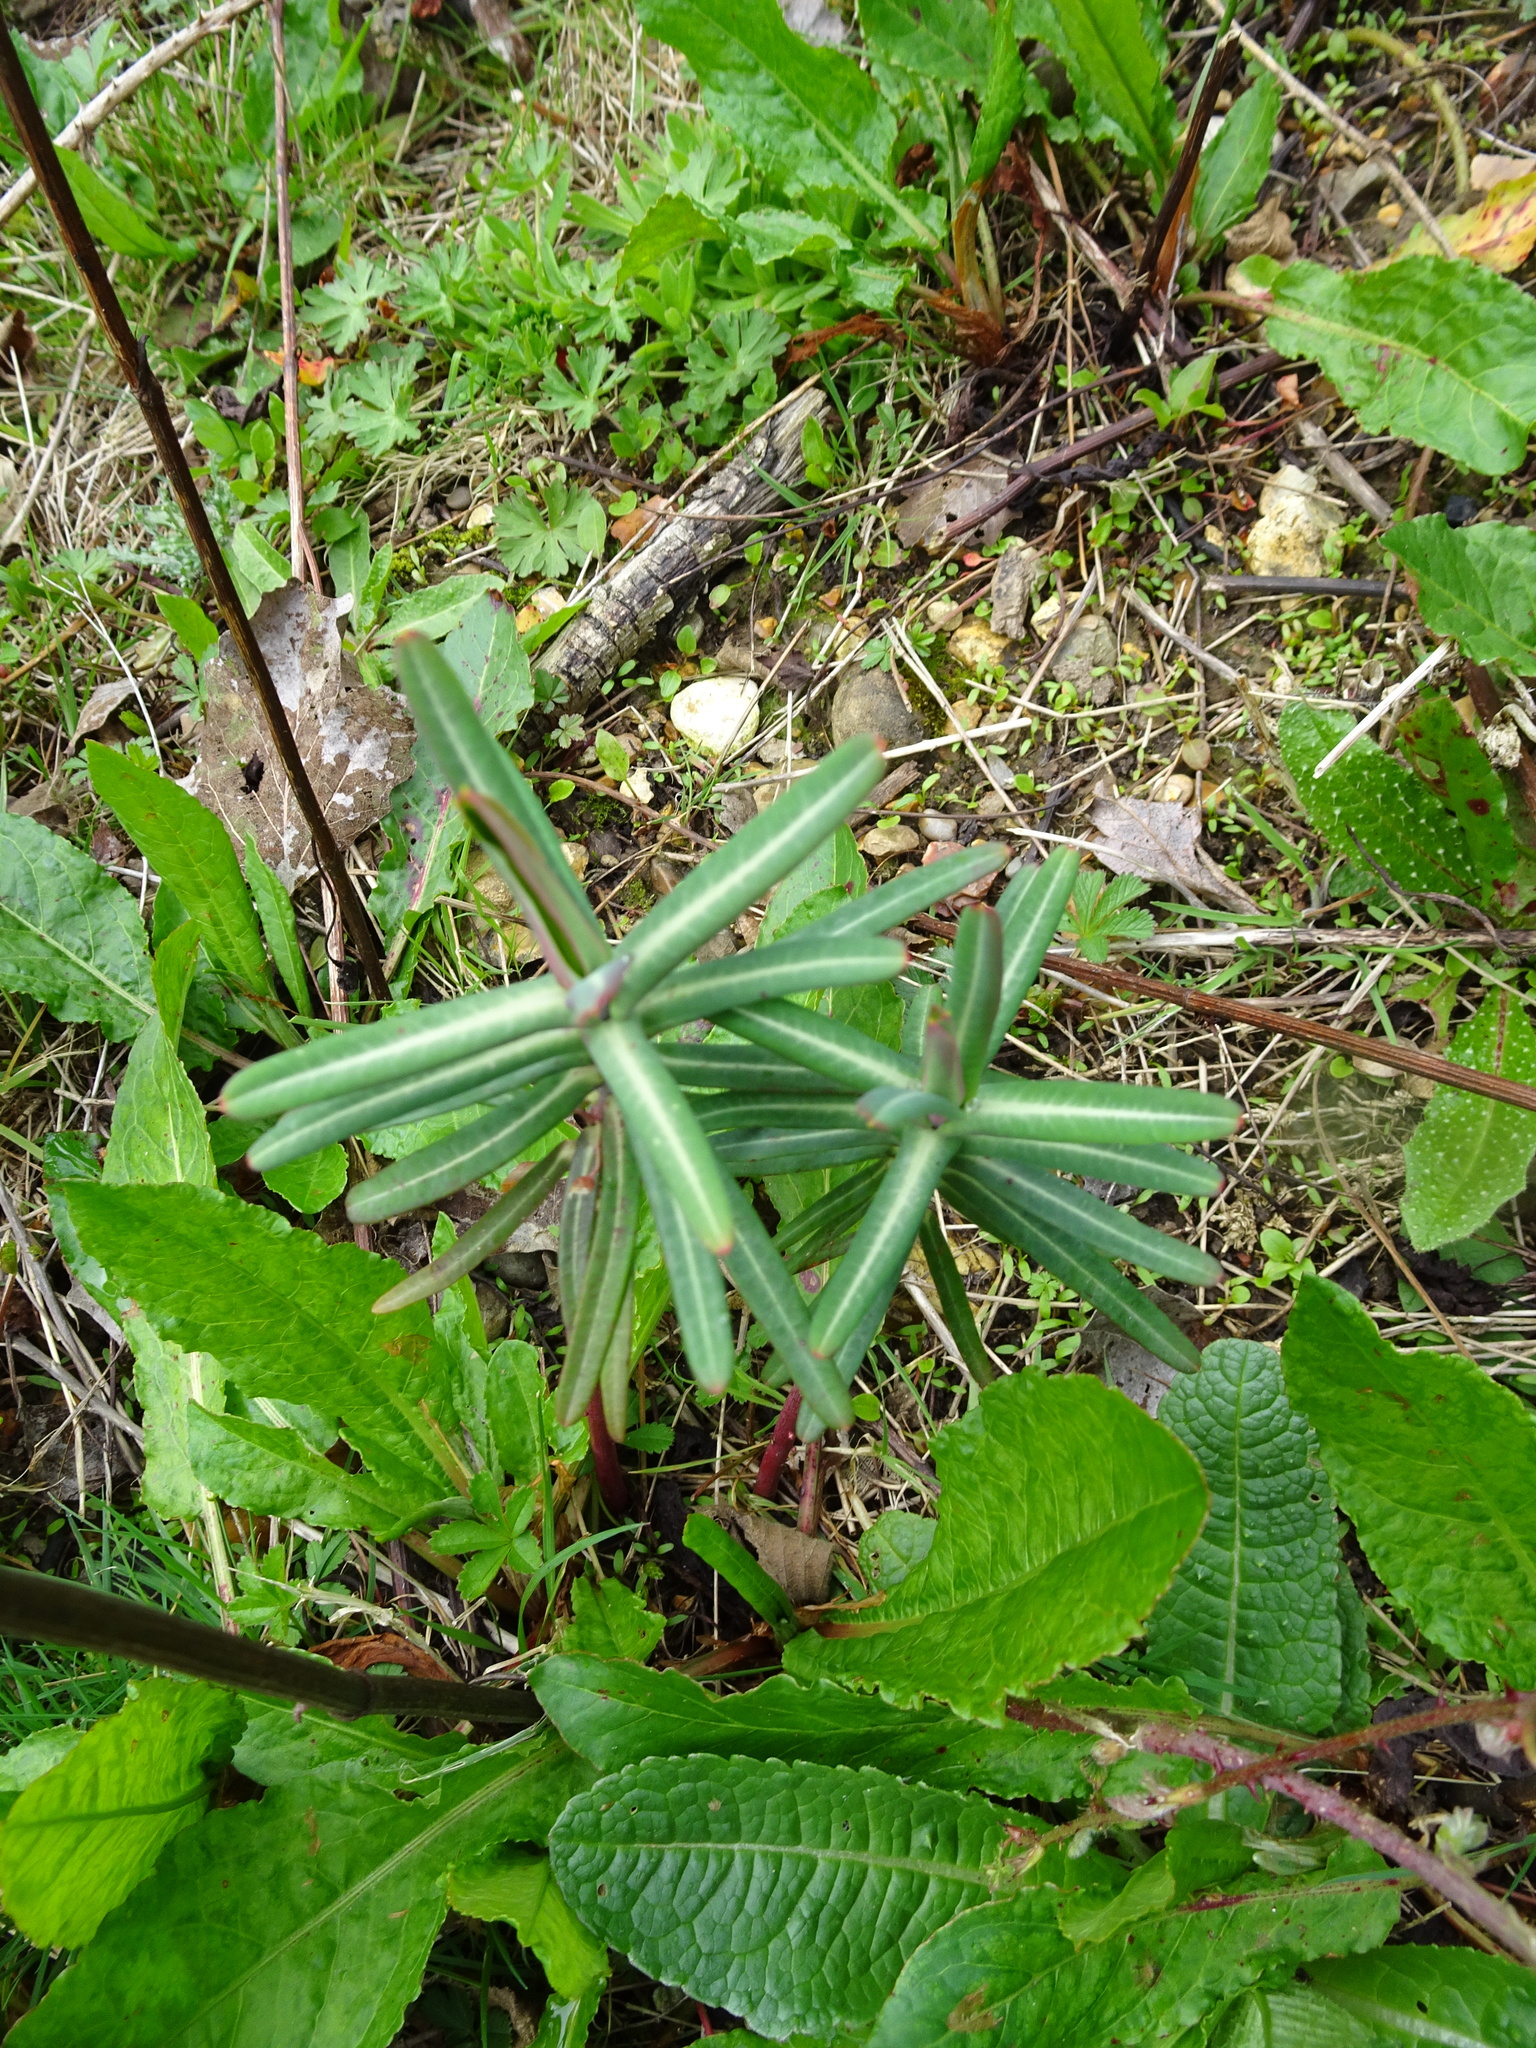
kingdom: Plantae
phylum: Tracheophyta
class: Magnoliopsida
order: Malpighiales
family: Euphorbiaceae
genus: Euphorbia
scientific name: Euphorbia lathyris
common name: Caper spurge
